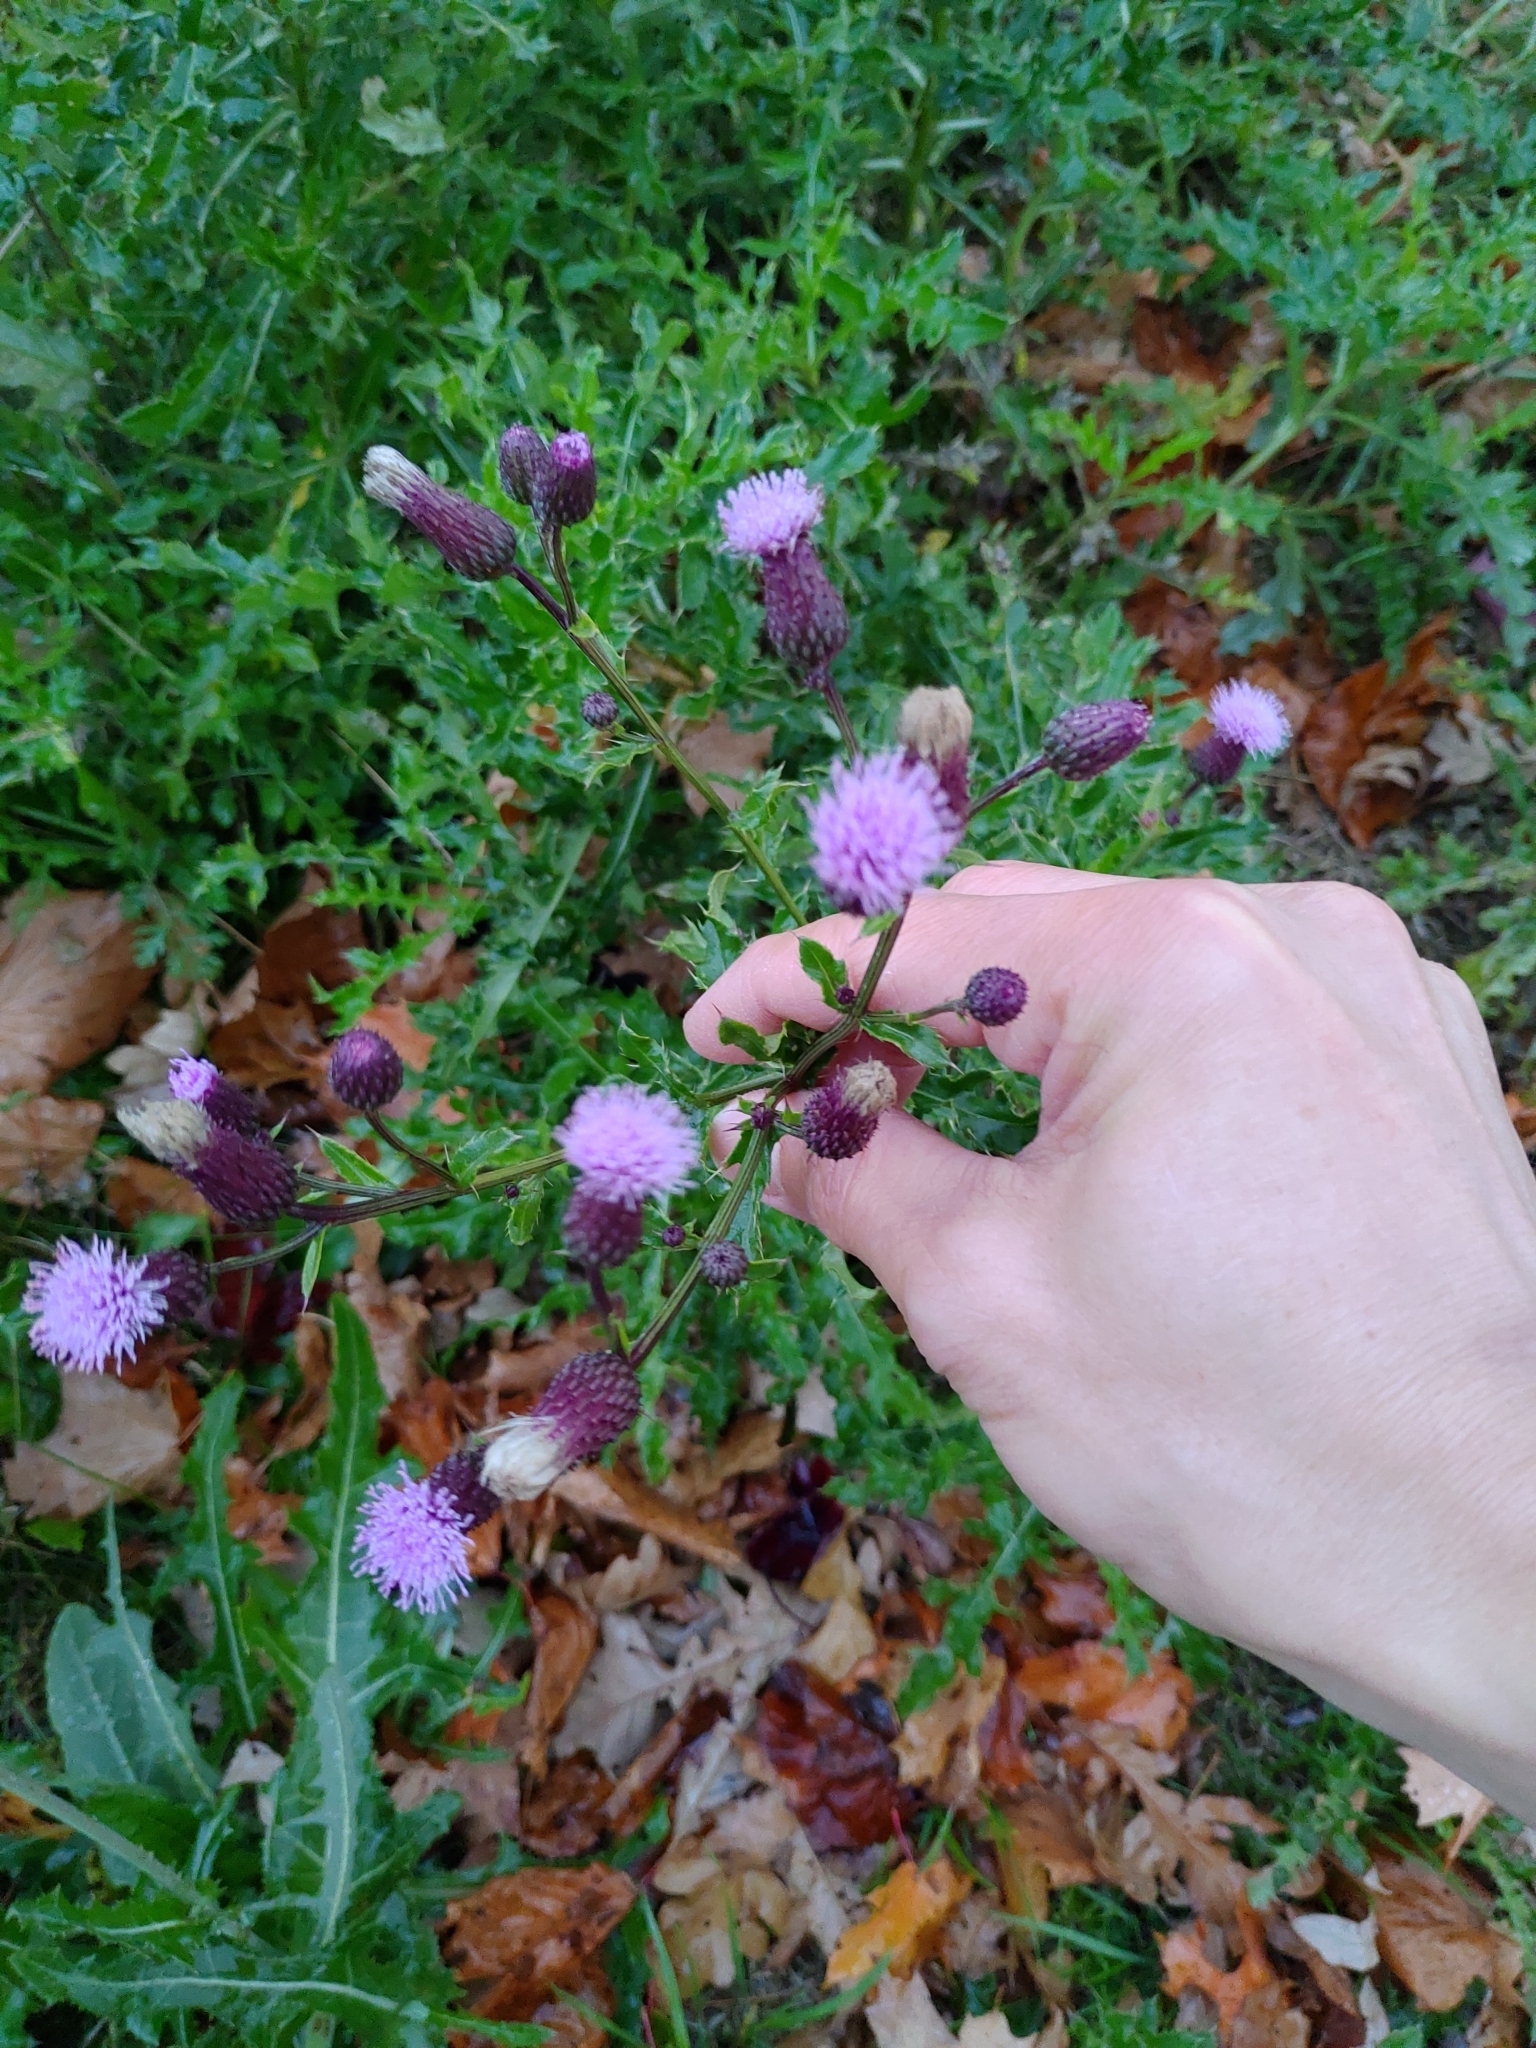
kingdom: Plantae
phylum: Tracheophyta
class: Magnoliopsida
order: Asterales
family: Asteraceae
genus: Cirsium
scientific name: Cirsium arvense
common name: Creeping thistle
